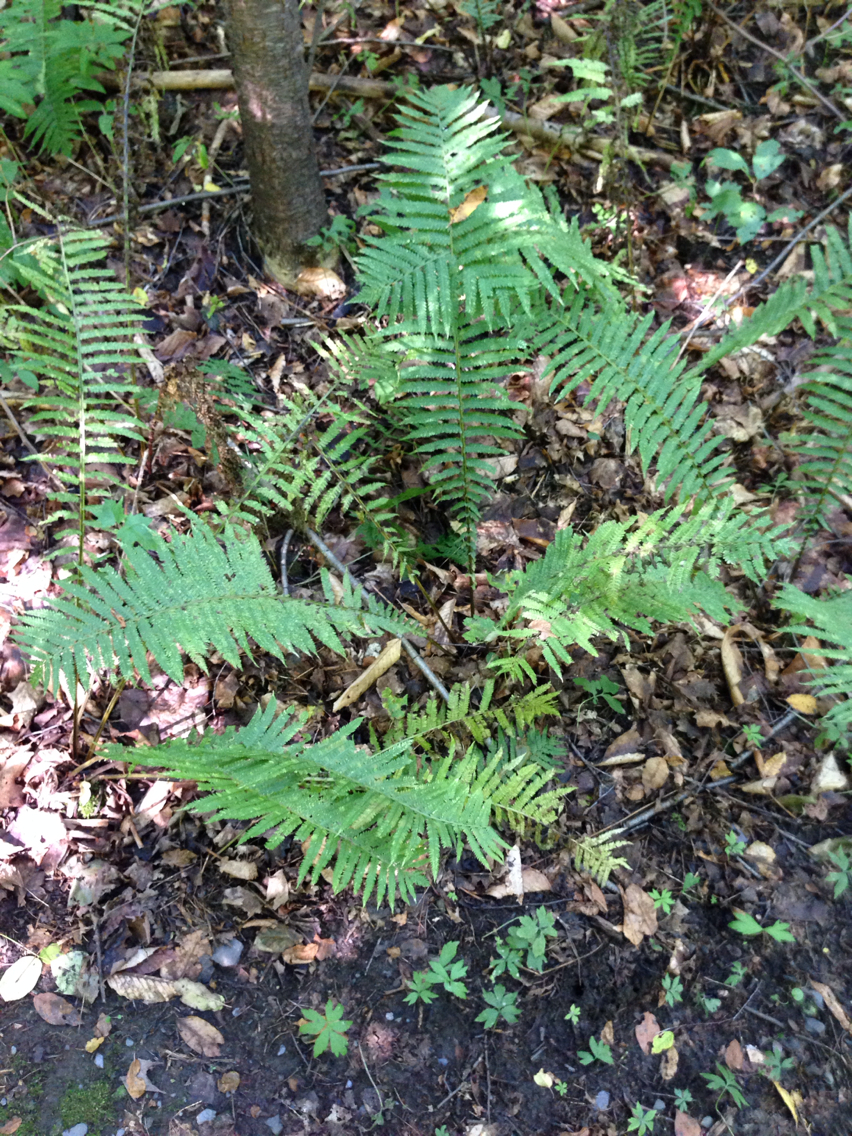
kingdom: Plantae
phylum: Tracheophyta
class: Polypodiopsida
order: Polypodiales
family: Onocleaceae
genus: Matteuccia
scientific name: Matteuccia struthiopteris
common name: Ostrich fern
